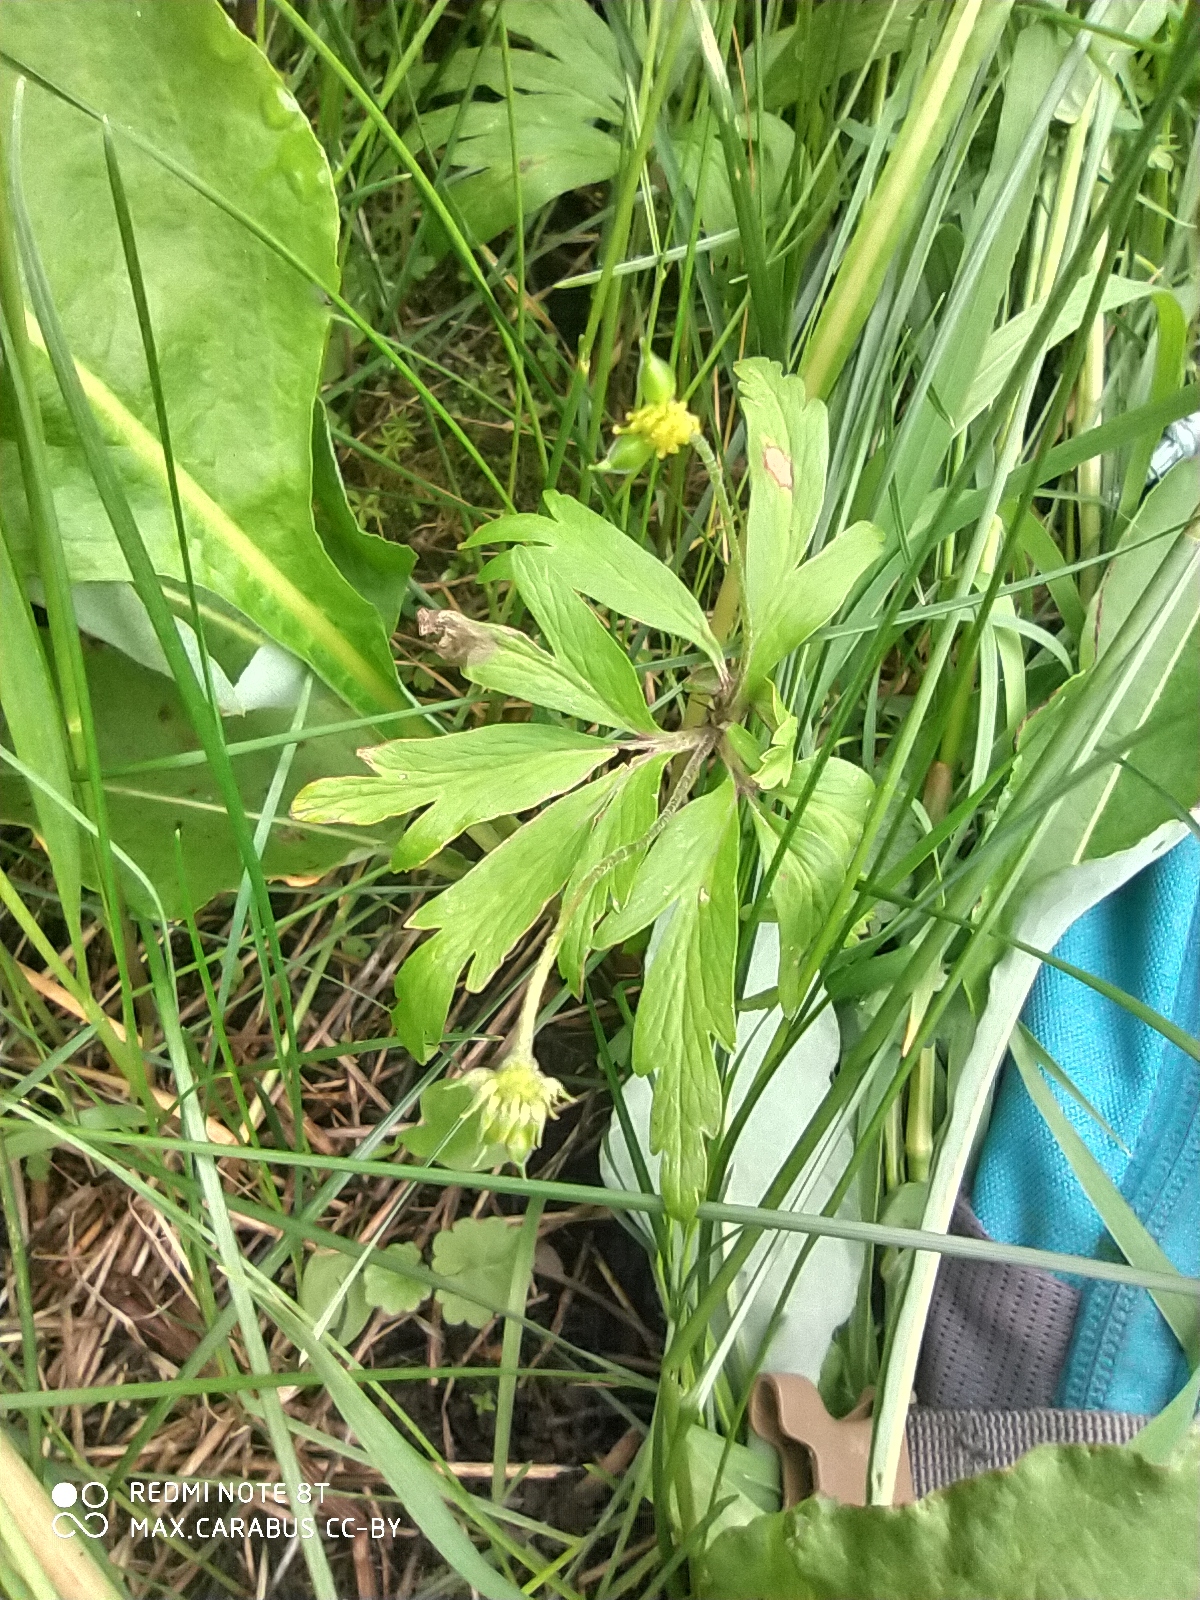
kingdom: Plantae
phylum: Tracheophyta
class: Magnoliopsida
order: Ranunculales
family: Ranunculaceae
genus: Anemone
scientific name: Anemone ranunculoides
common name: Yellow anemone
